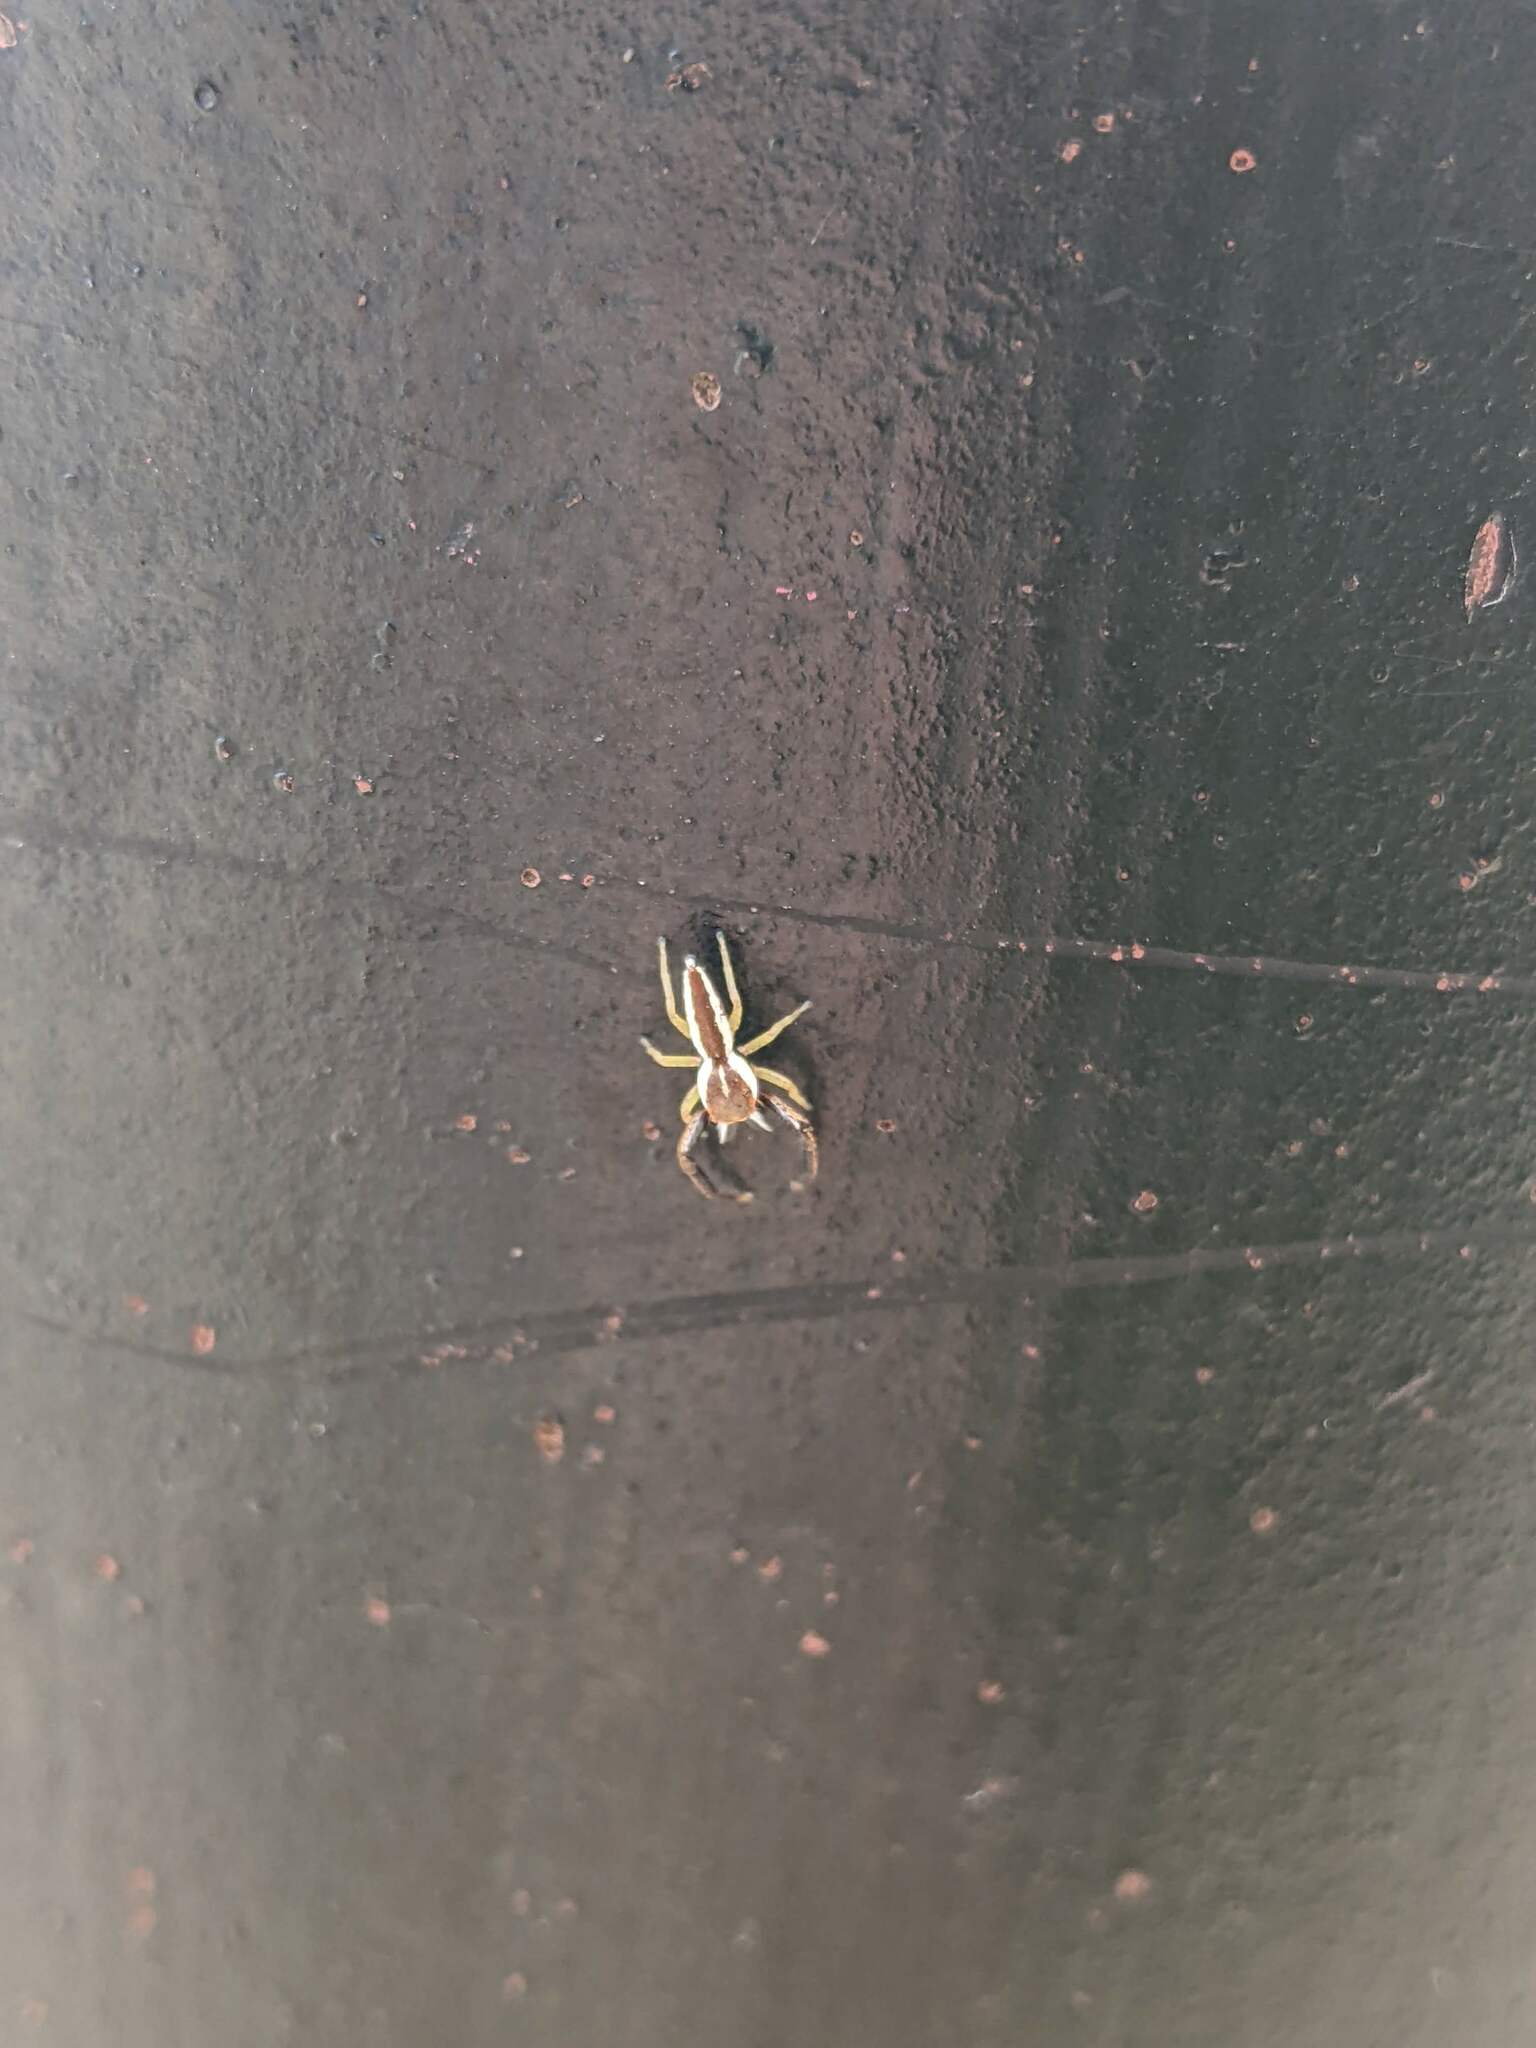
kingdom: Animalia
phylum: Arthropoda
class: Arachnida
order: Araneae
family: Salticidae
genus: Hentzia
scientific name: Hentzia palmarum
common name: Common hentz jumping spider
